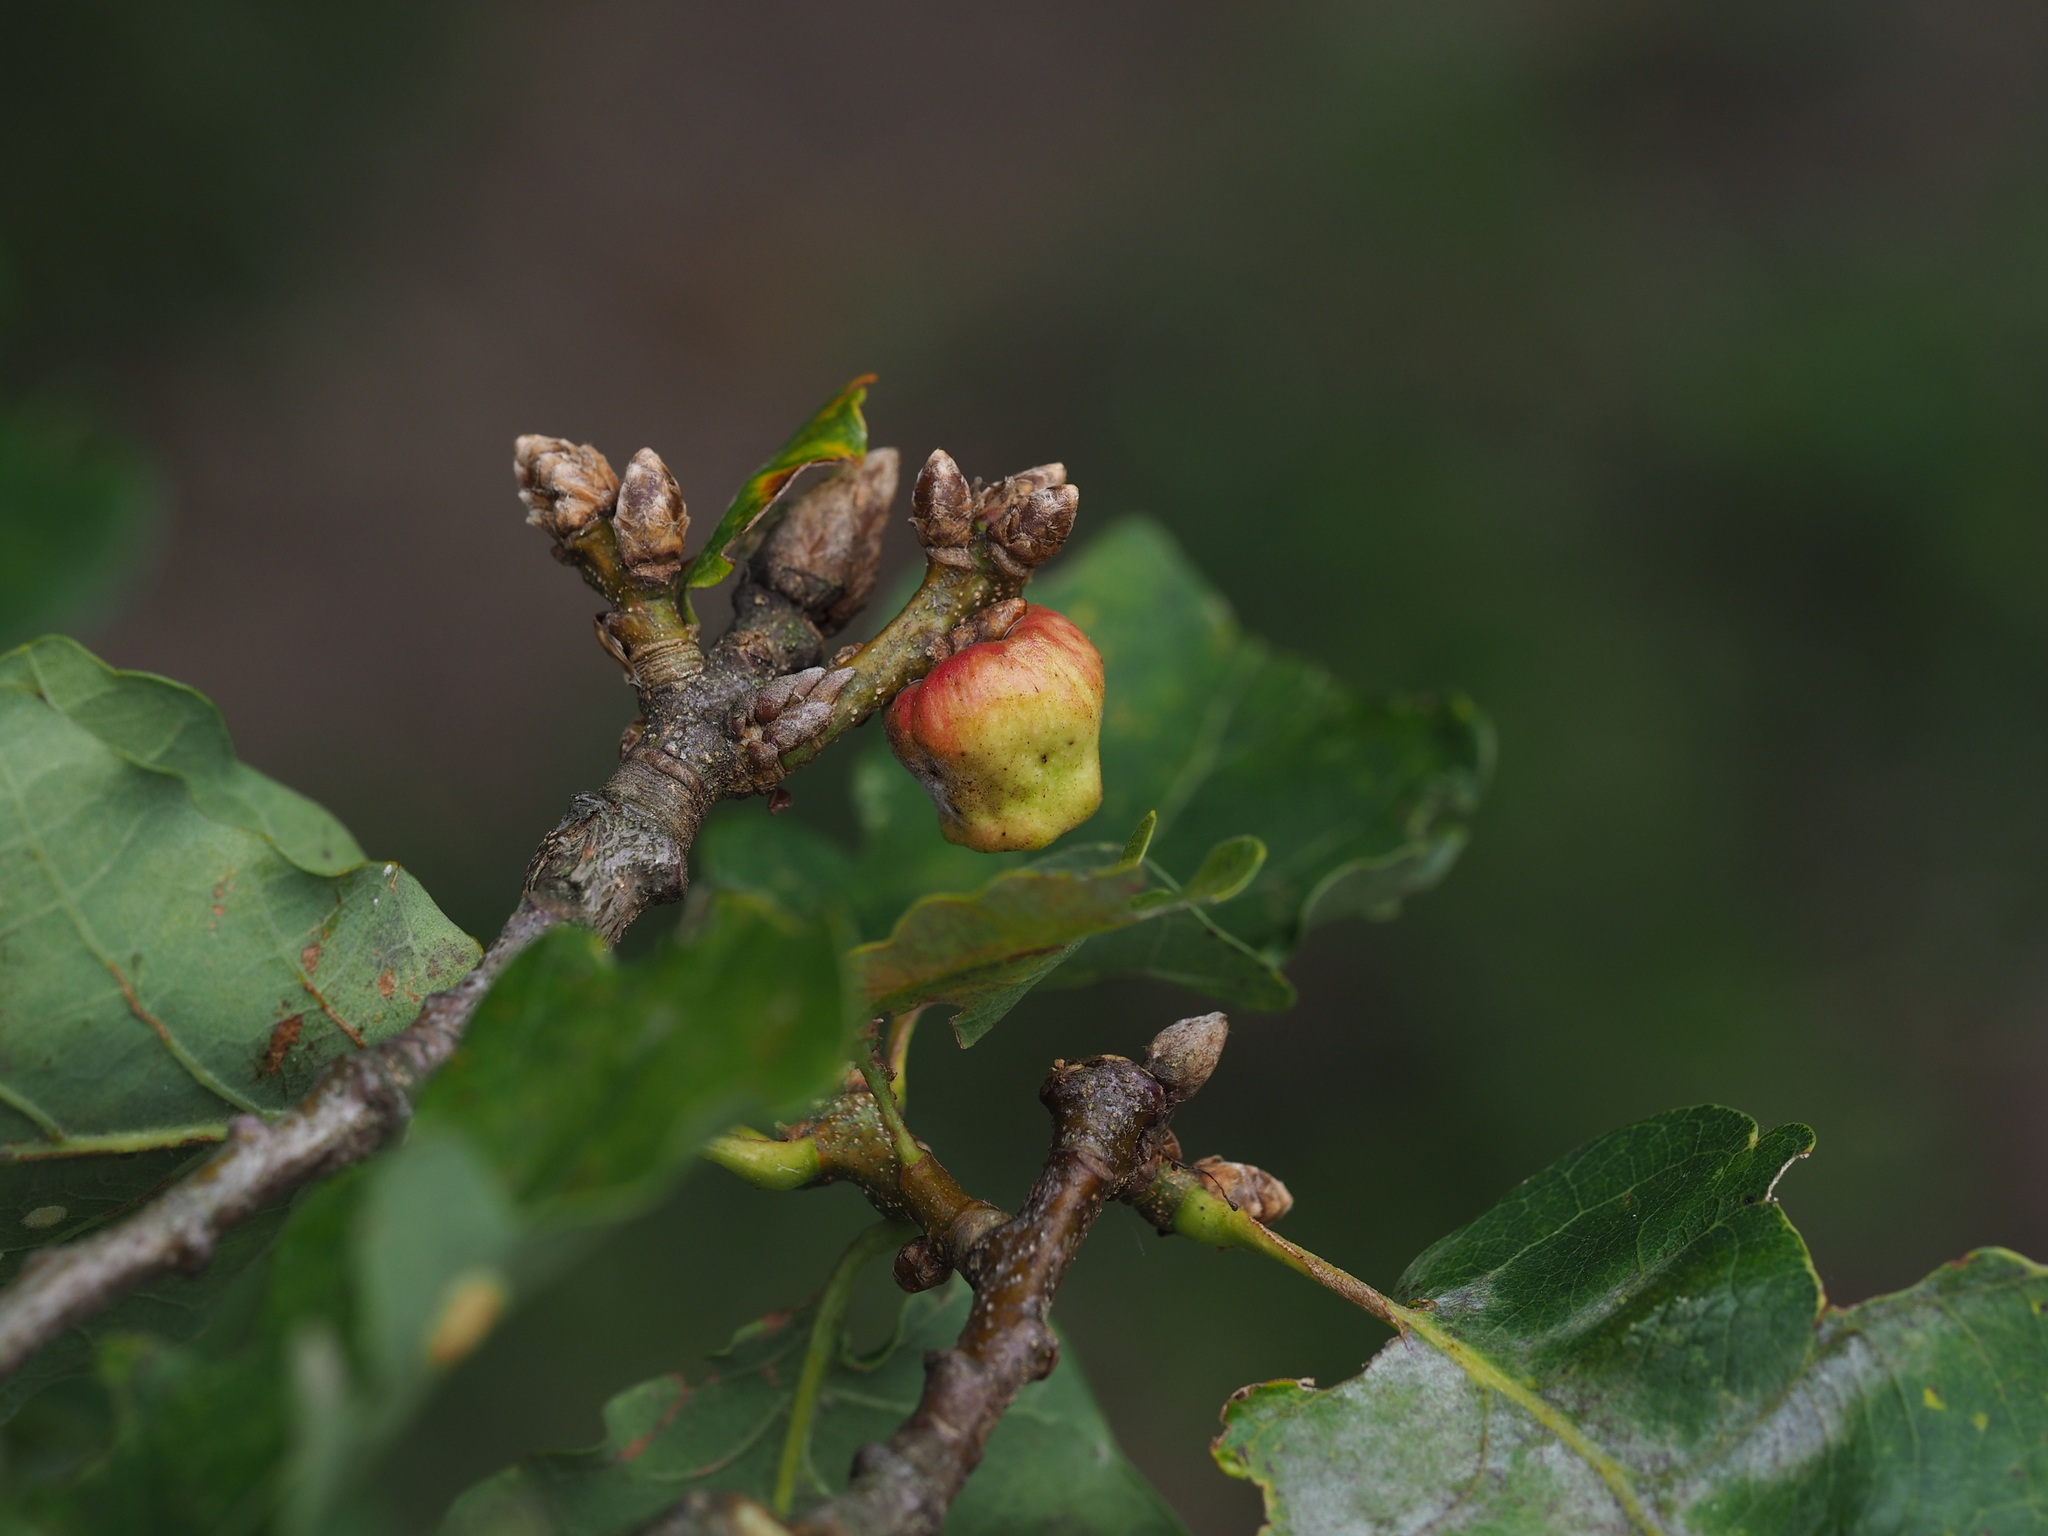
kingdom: Animalia
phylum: Arthropoda
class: Insecta
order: Hymenoptera
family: Cynipidae
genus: Andricus
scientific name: Andricus glutinosus
